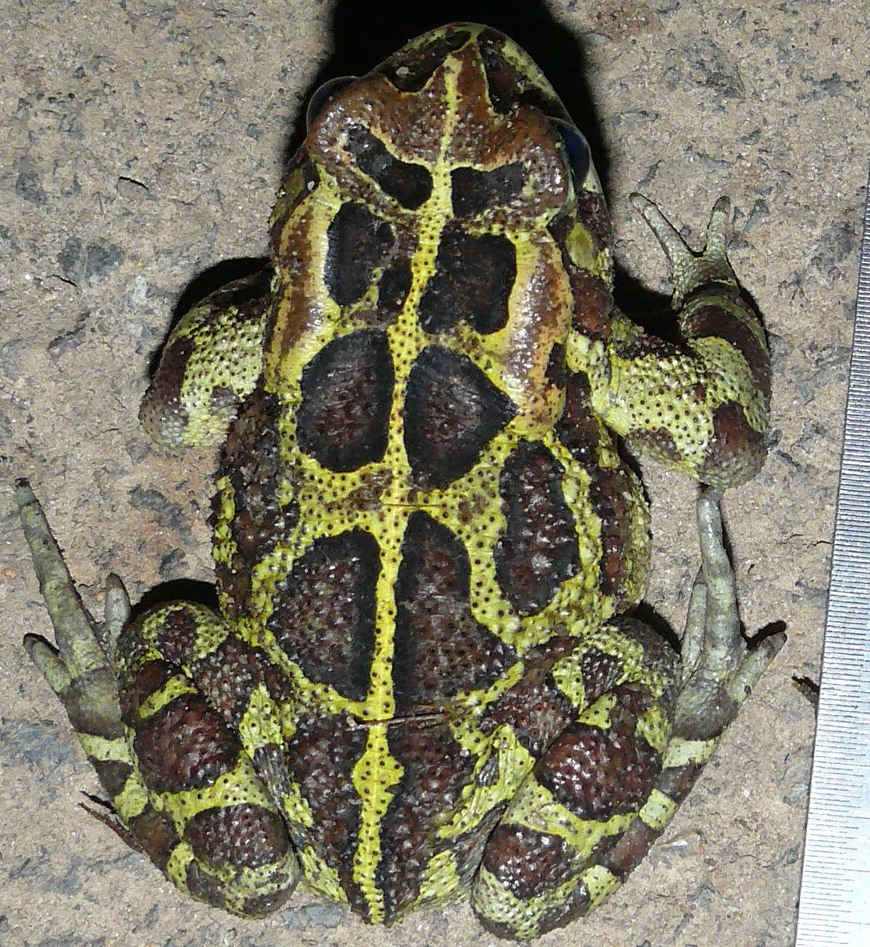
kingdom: Animalia
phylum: Chordata
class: Amphibia
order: Anura
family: Bufonidae
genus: Sclerophrys
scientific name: Sclerophrys pantherina
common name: Panther toad
